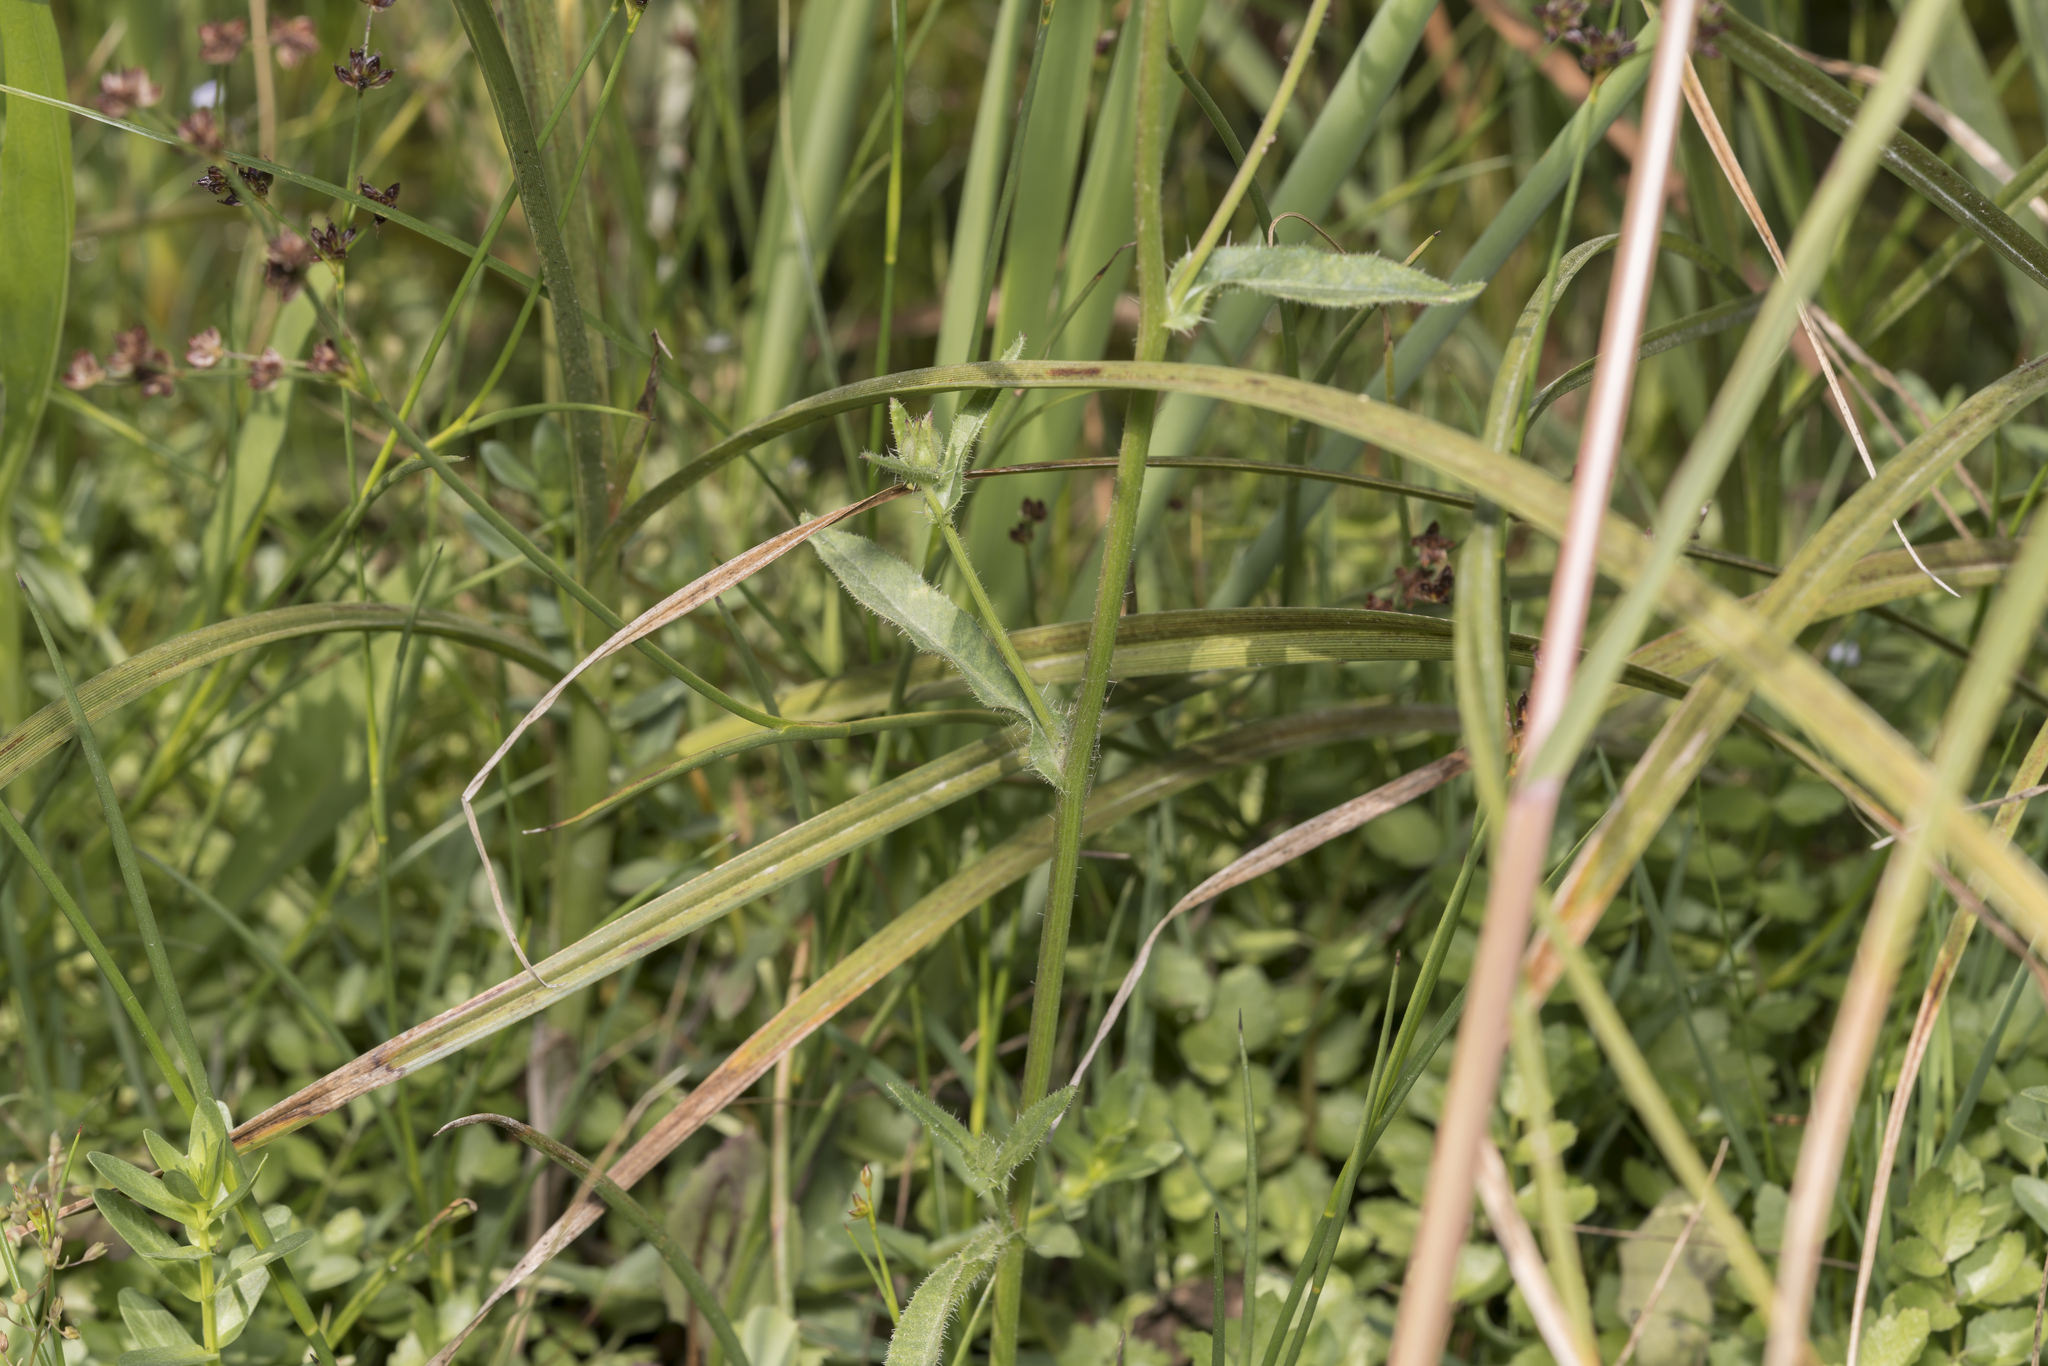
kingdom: Plantae
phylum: Tracheophyta
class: Magnoliopsida
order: Asterales
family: Asteraceae
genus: Helminthotheca
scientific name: Helminthotheca echioides
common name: Ox-tongue
